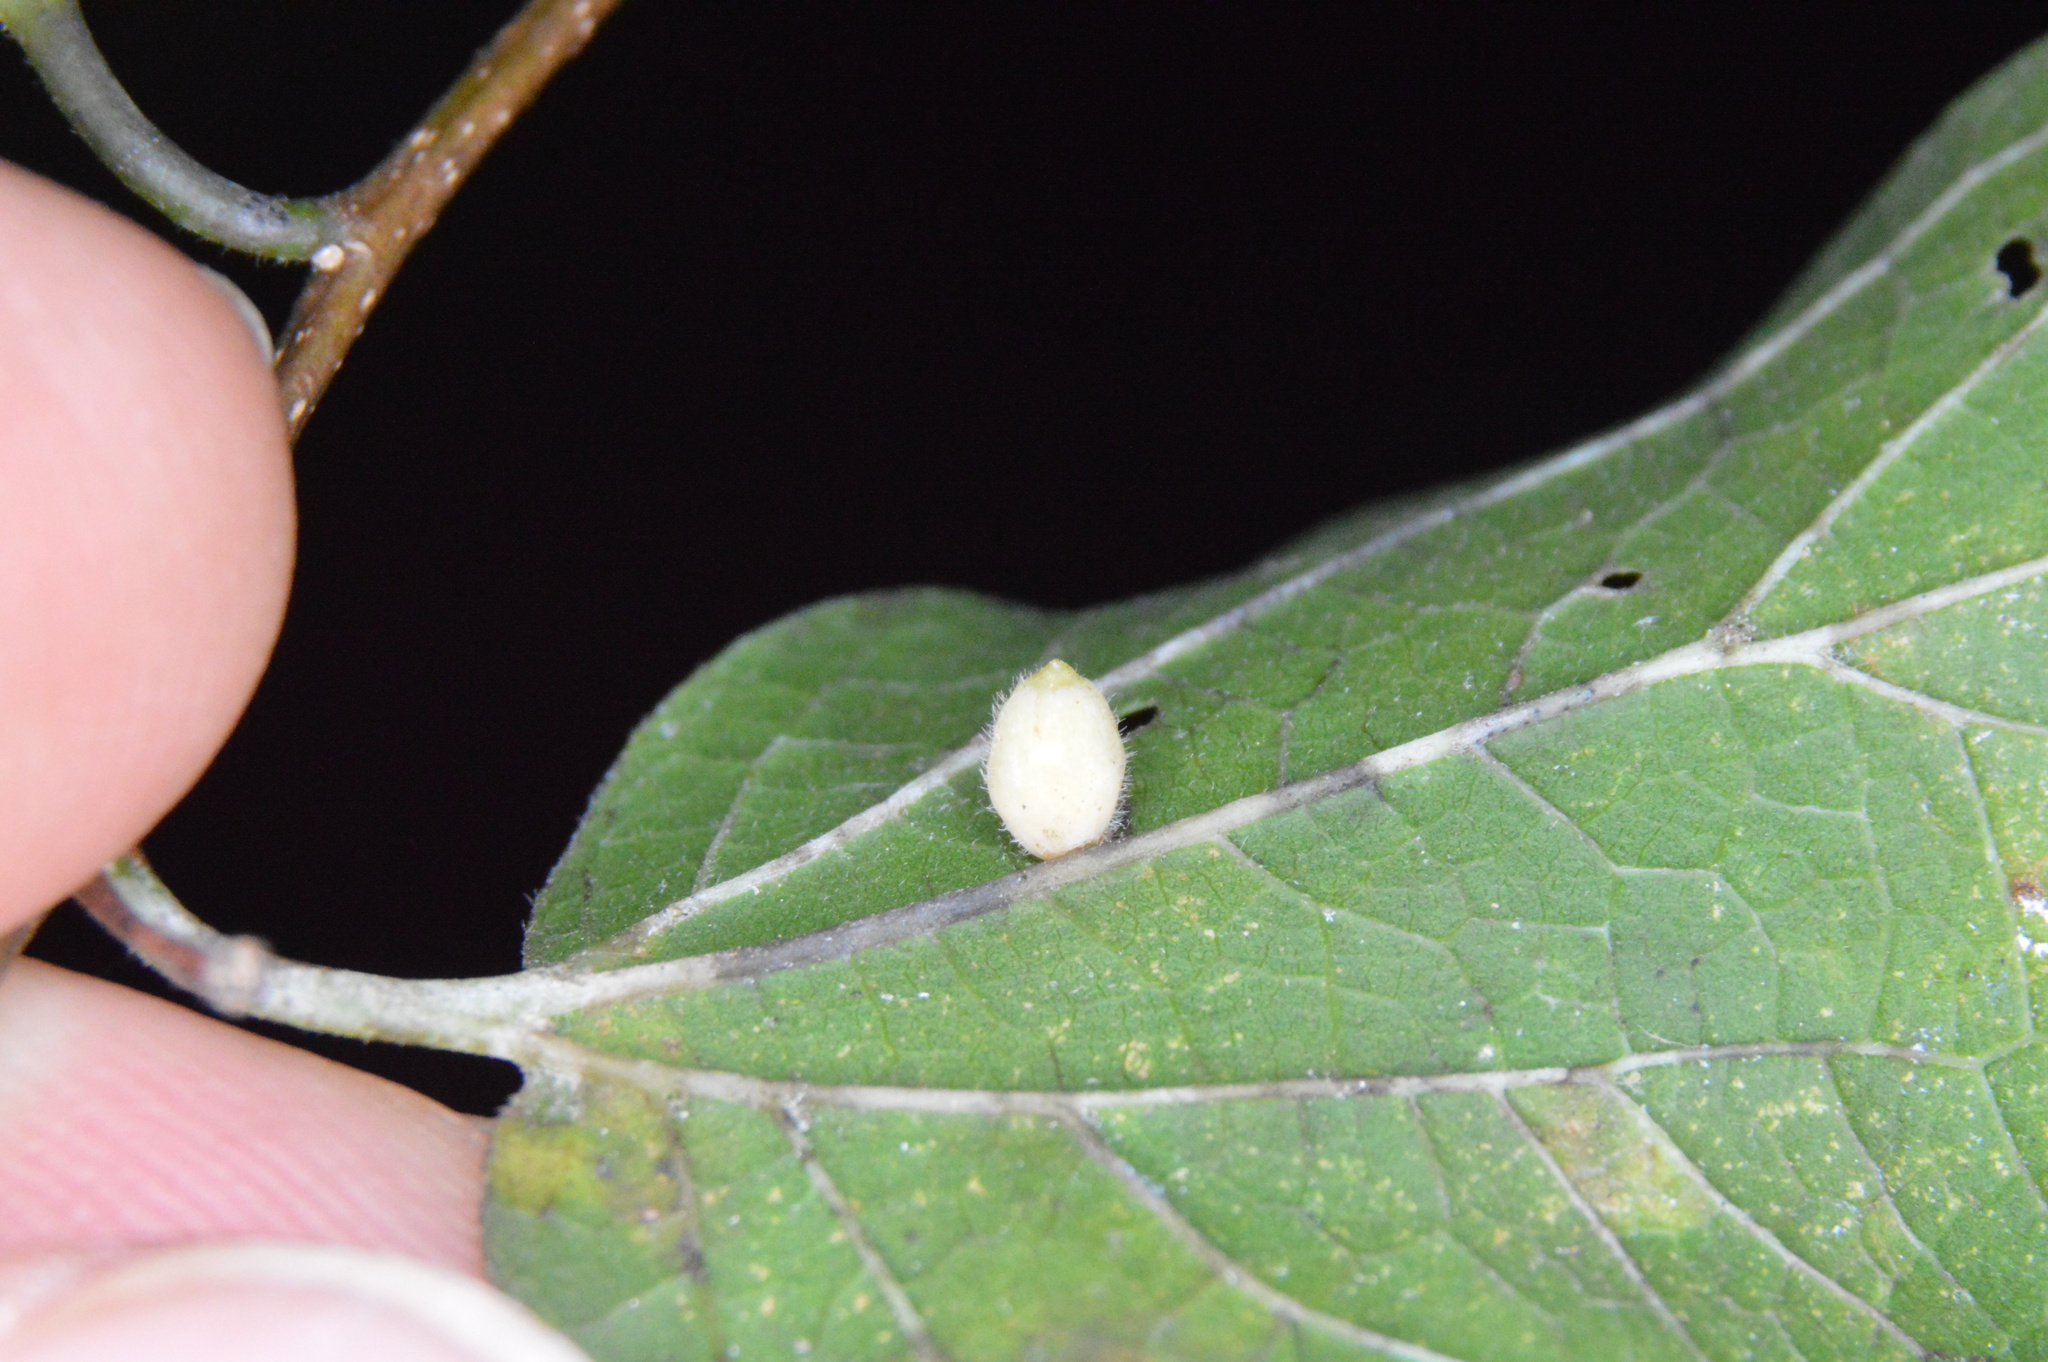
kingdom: Animalia
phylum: Arthropoda
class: Insecta
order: Diptera
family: Cecidomyiidae
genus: Celticecis
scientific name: Celticecis globosa
